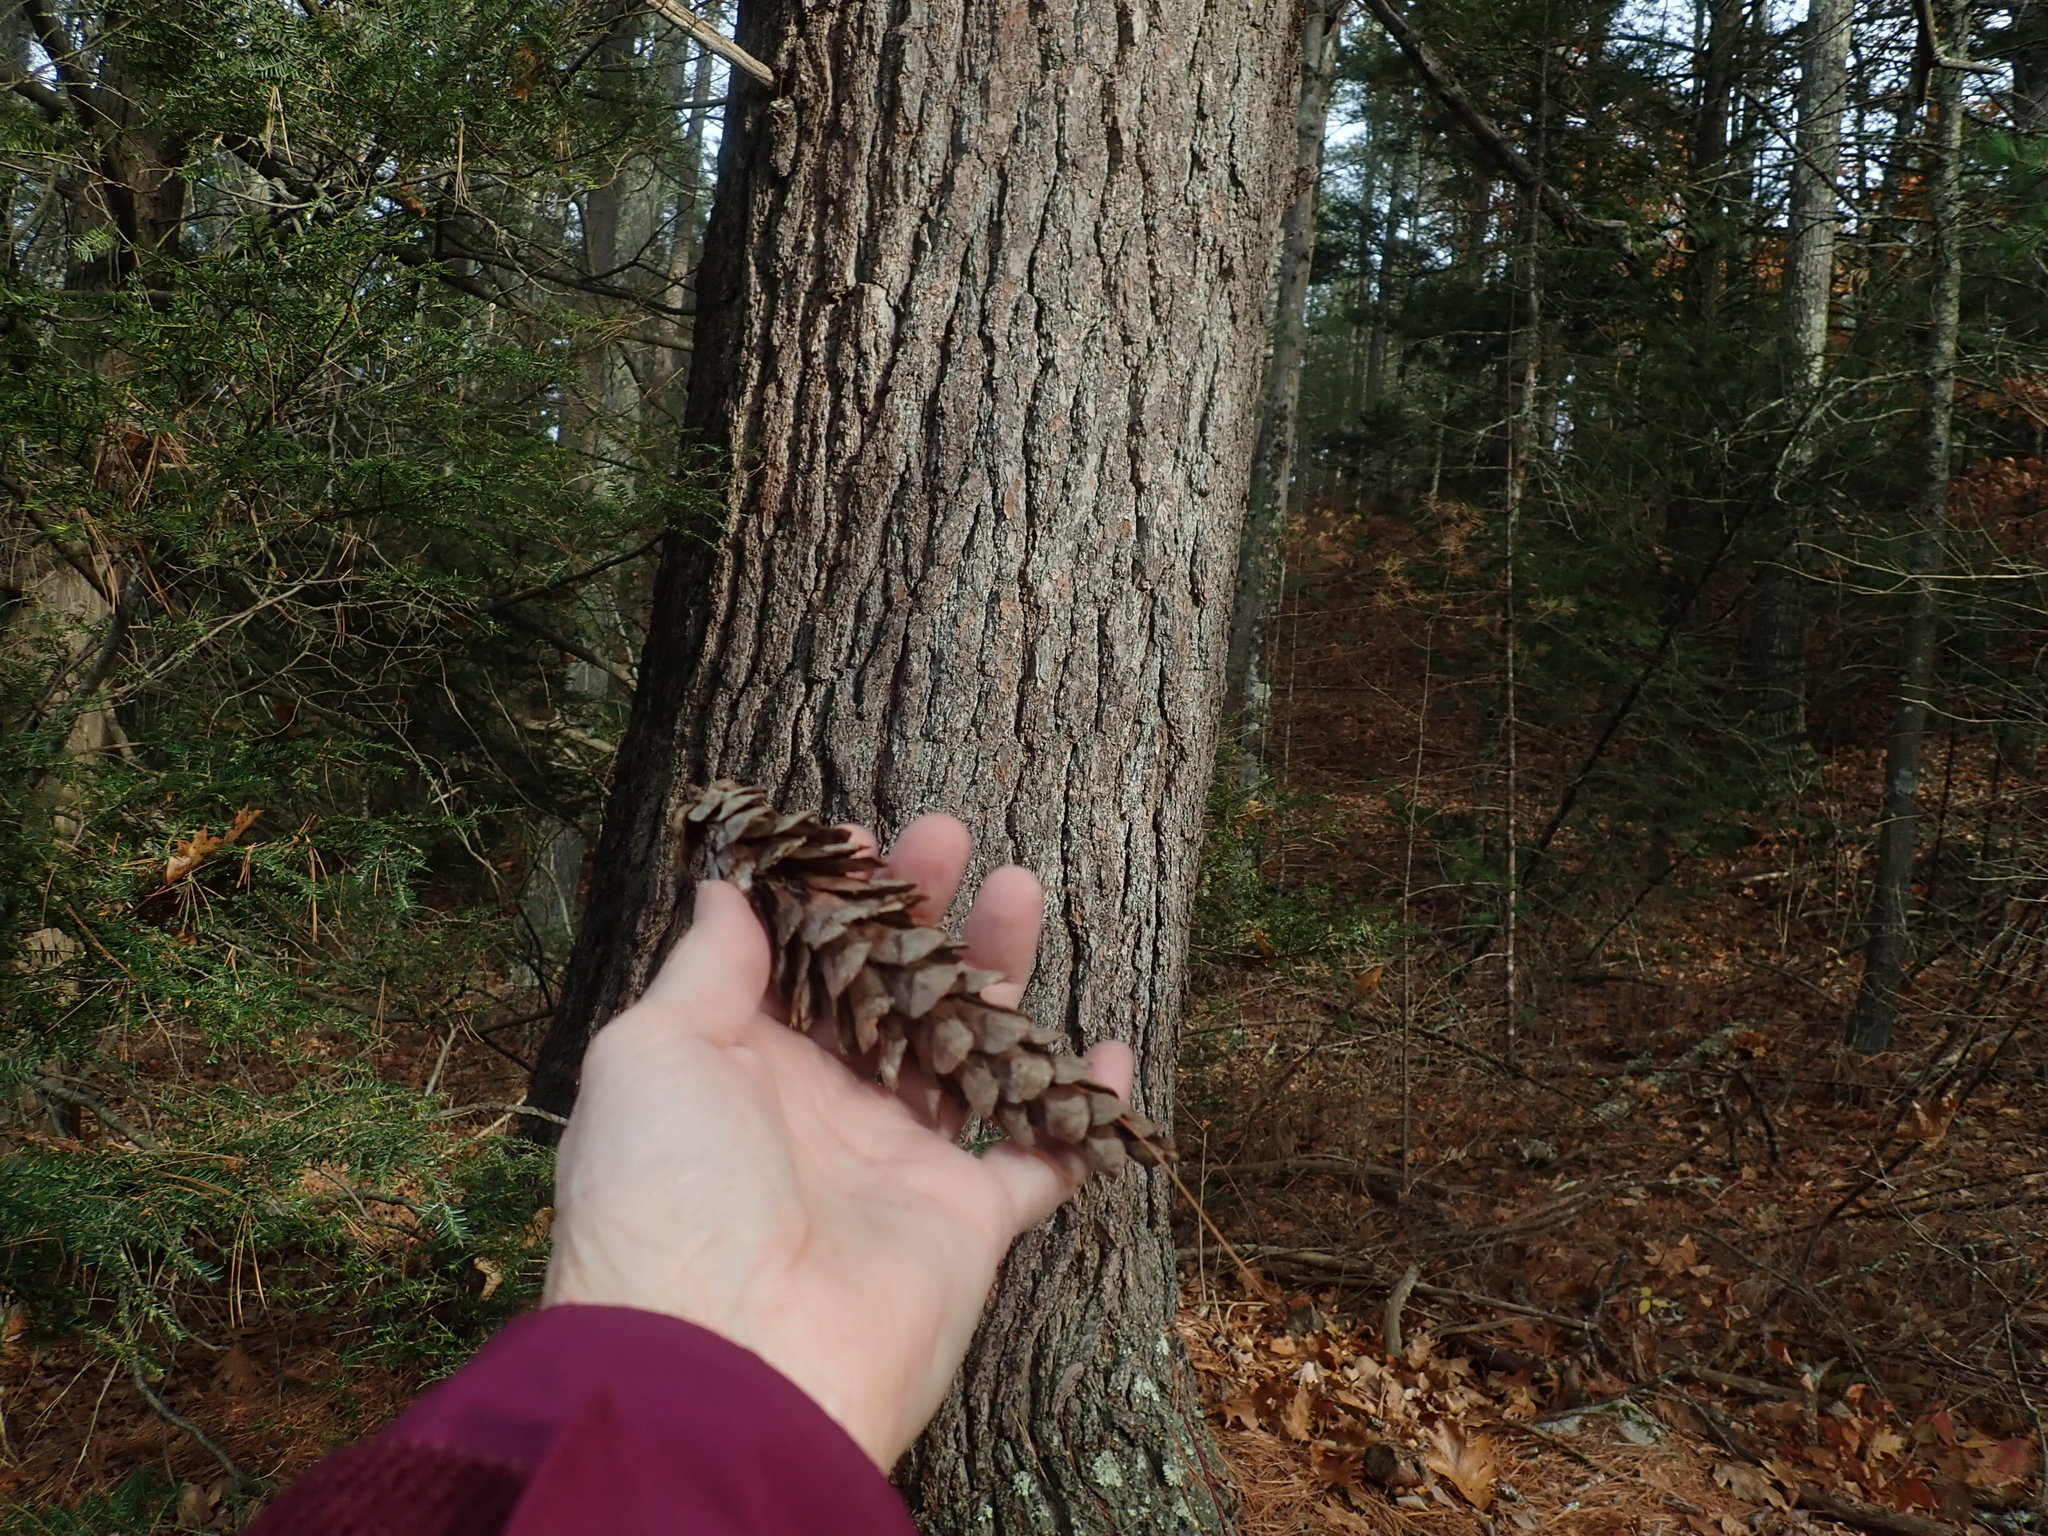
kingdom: Plantae
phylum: Tracheophyta
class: Pinopsida
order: Pinales
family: Pinaceae
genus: Pinus
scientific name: Pinus strobus
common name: Weymouth pine
